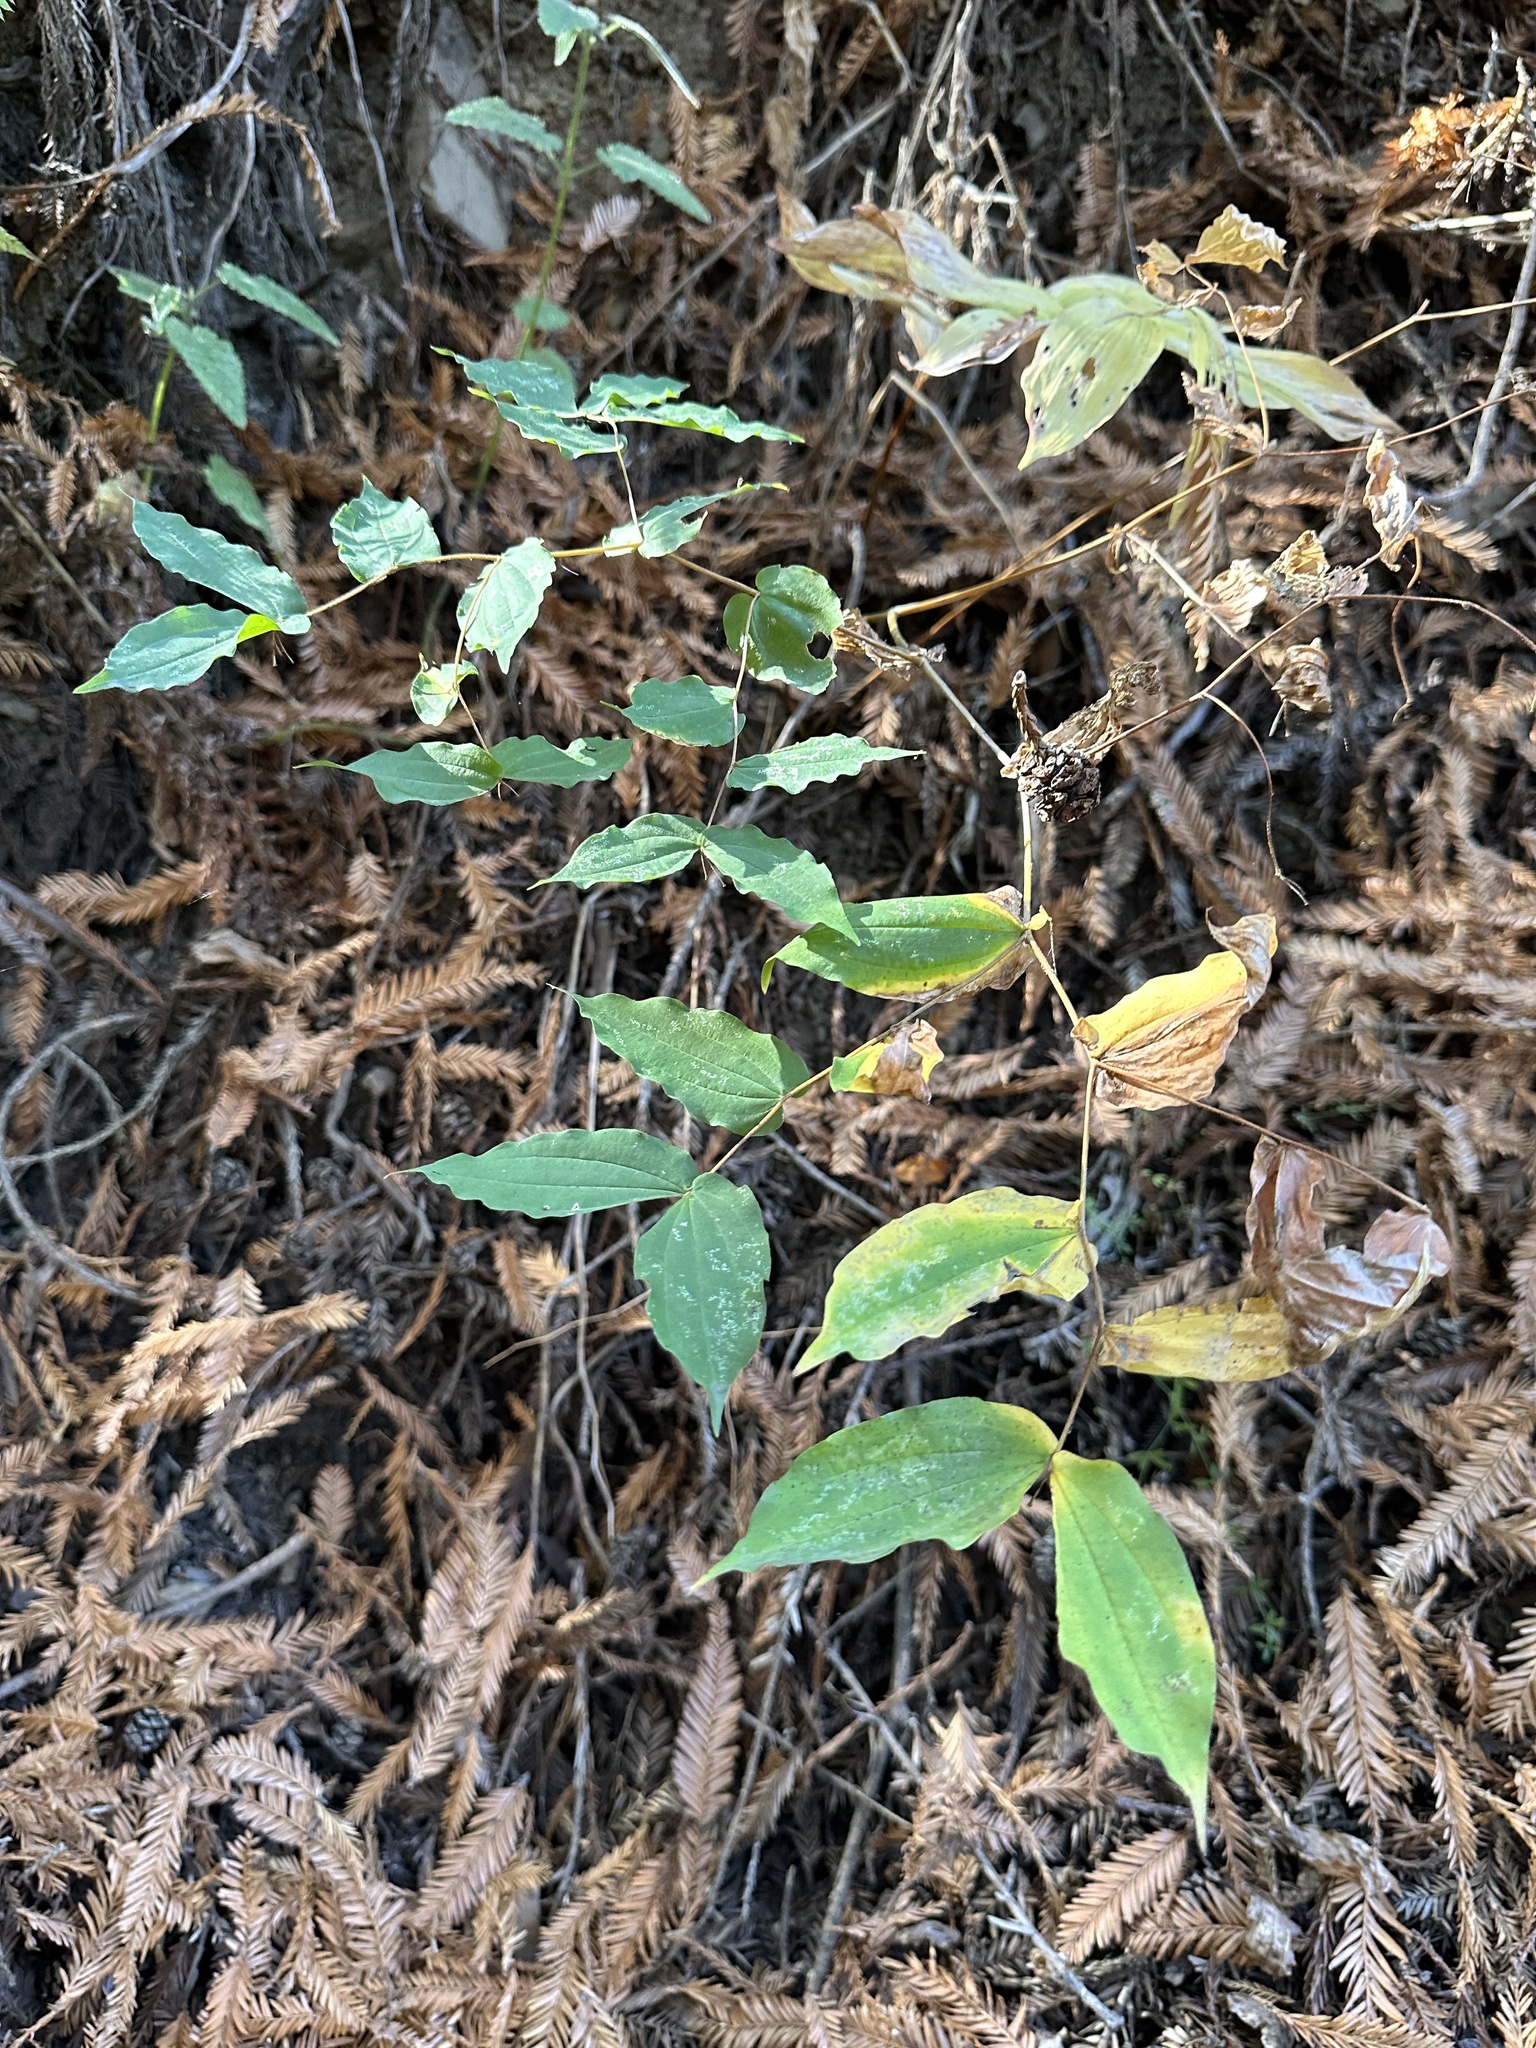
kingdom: Plantae
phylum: Tracheophyta
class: Liliopsida
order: Liliales
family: Liliaceae
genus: Prosartes
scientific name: Prosartes hookeri
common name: Fairy-bells
